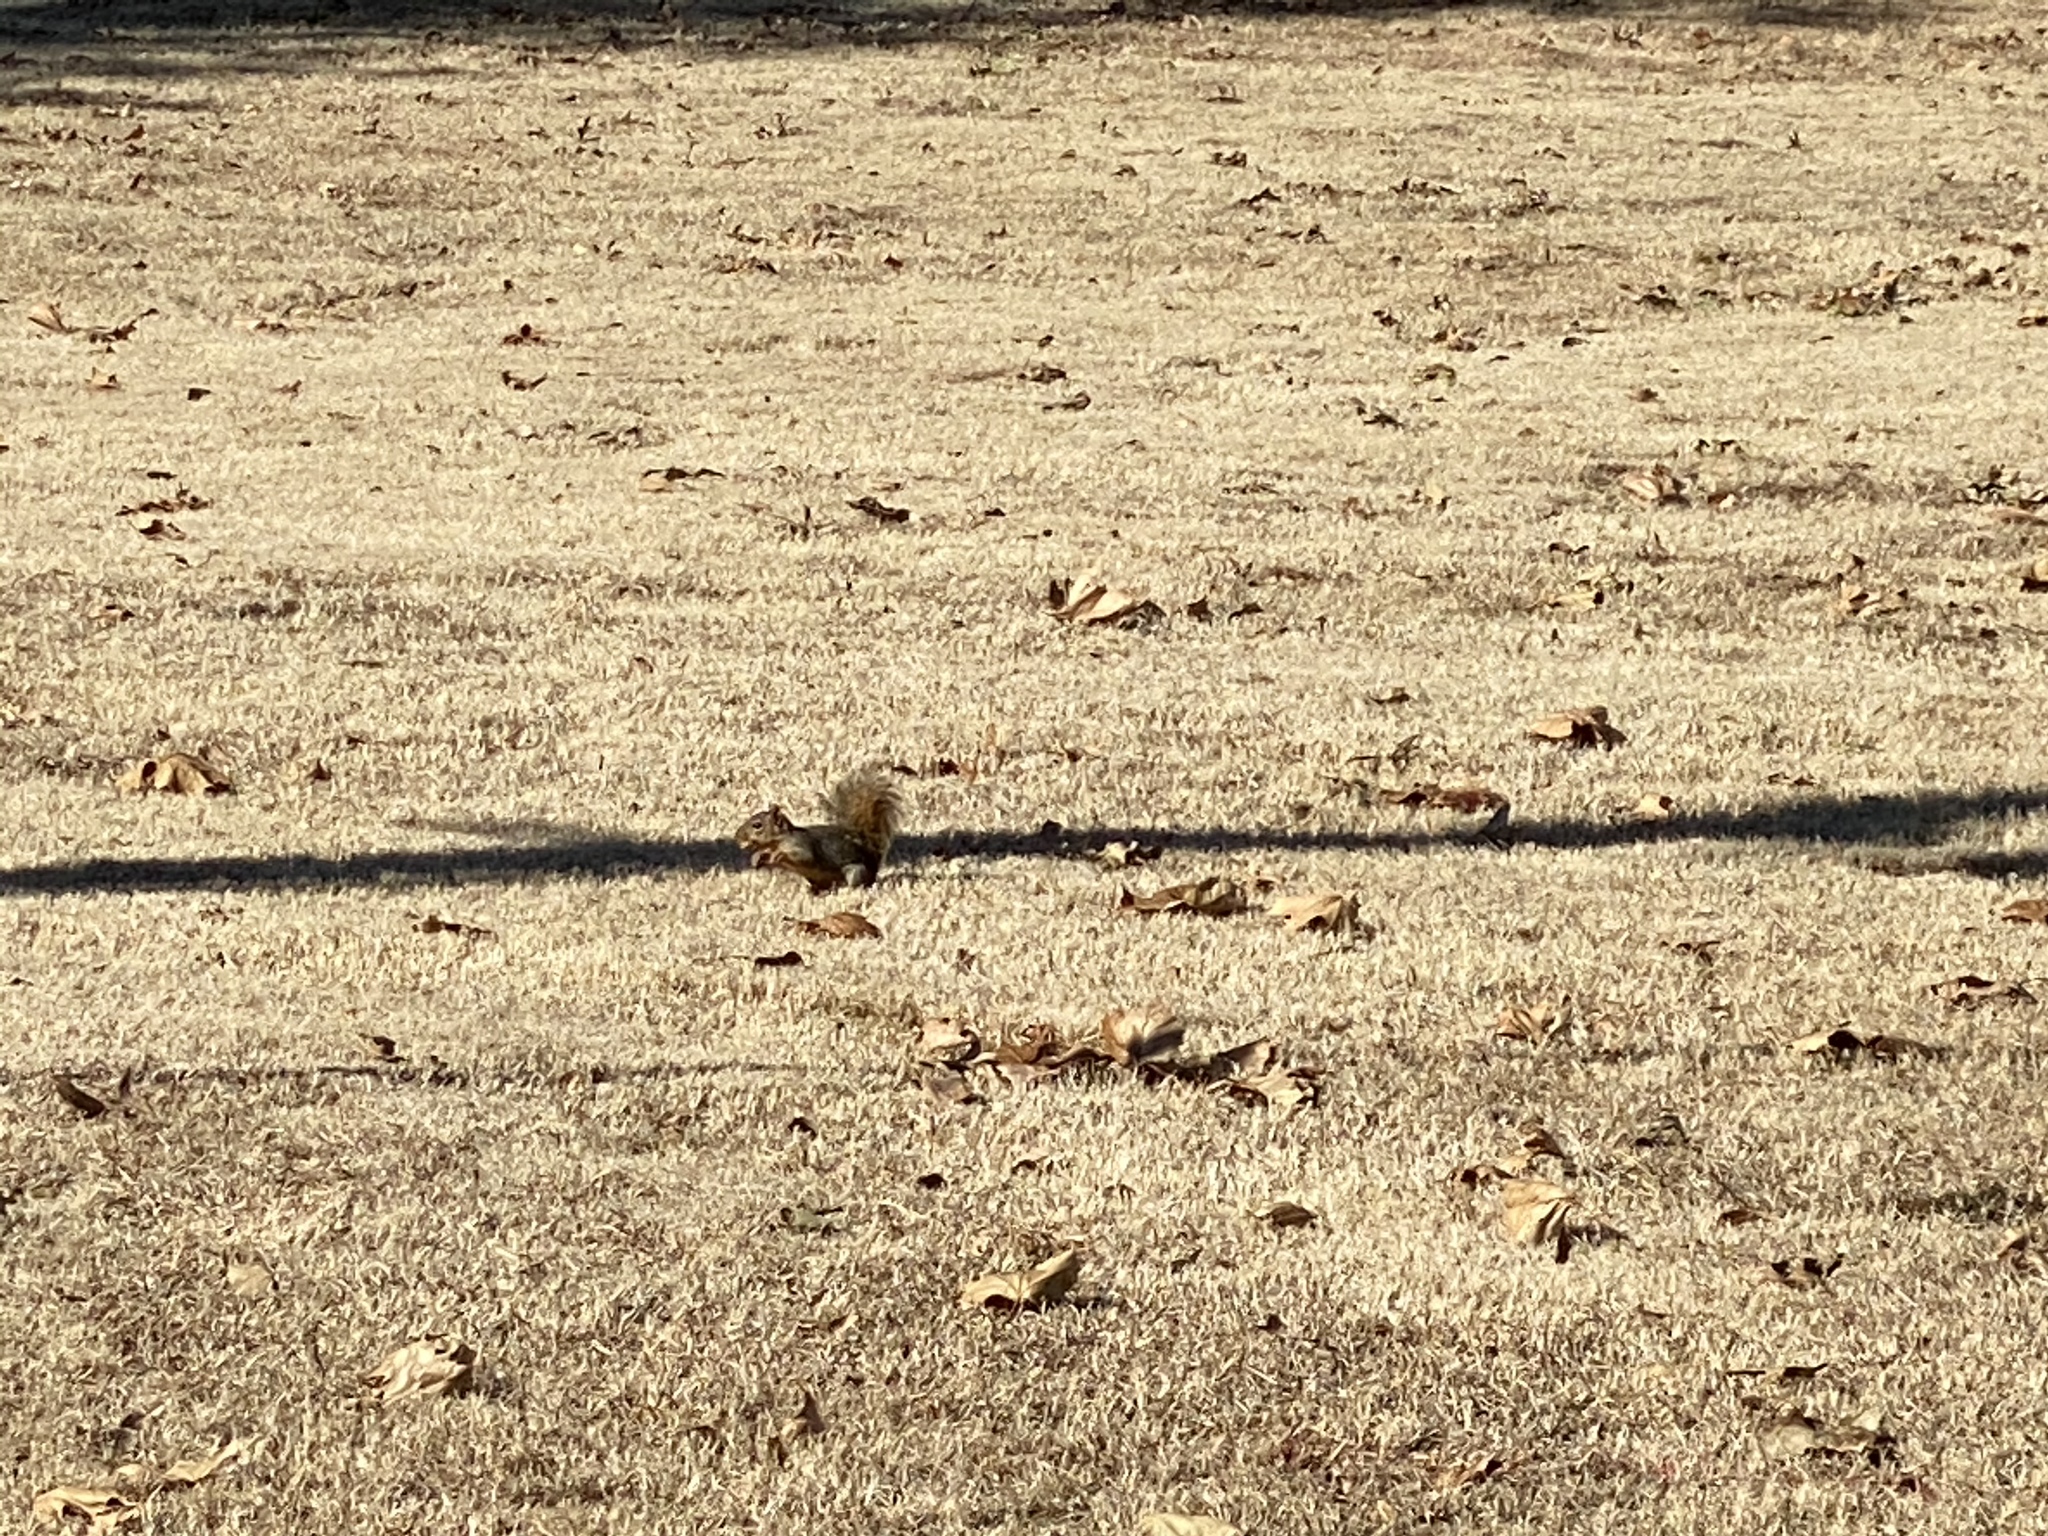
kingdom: Animalia
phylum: Chordata
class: Mammalia
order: Rodentia
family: Sciuridae
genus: Sciurus
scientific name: Sciurus niger
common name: Fox squirrel
